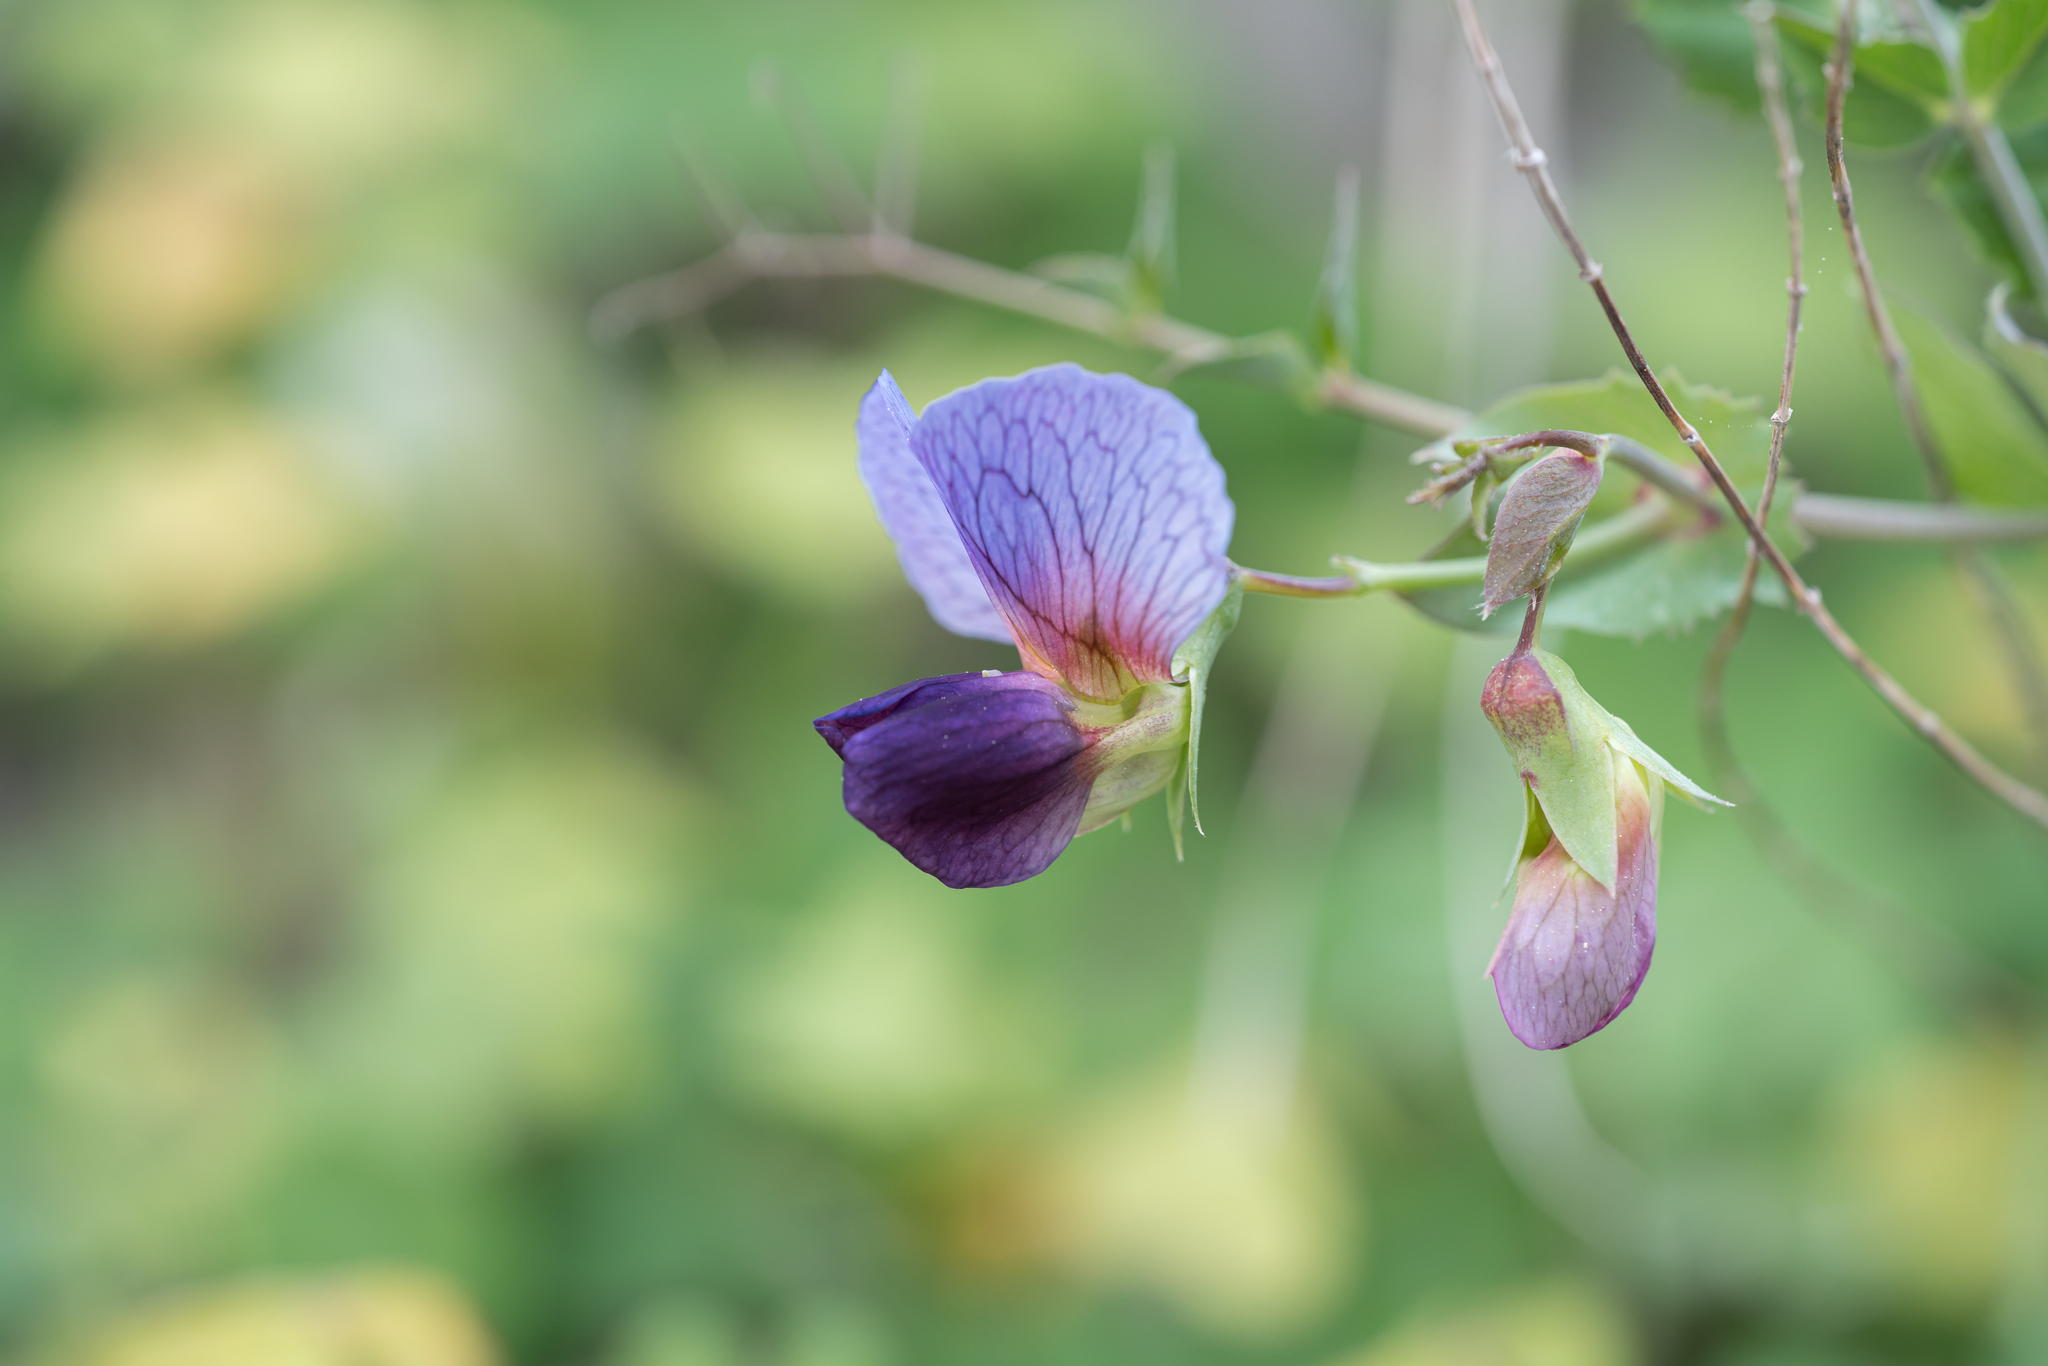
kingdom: Plantae
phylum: Tracheophyta
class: Magnoliopsida
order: Fabales
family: Fabaceae
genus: Lathyrus
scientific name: Lathyrus oleraceus
